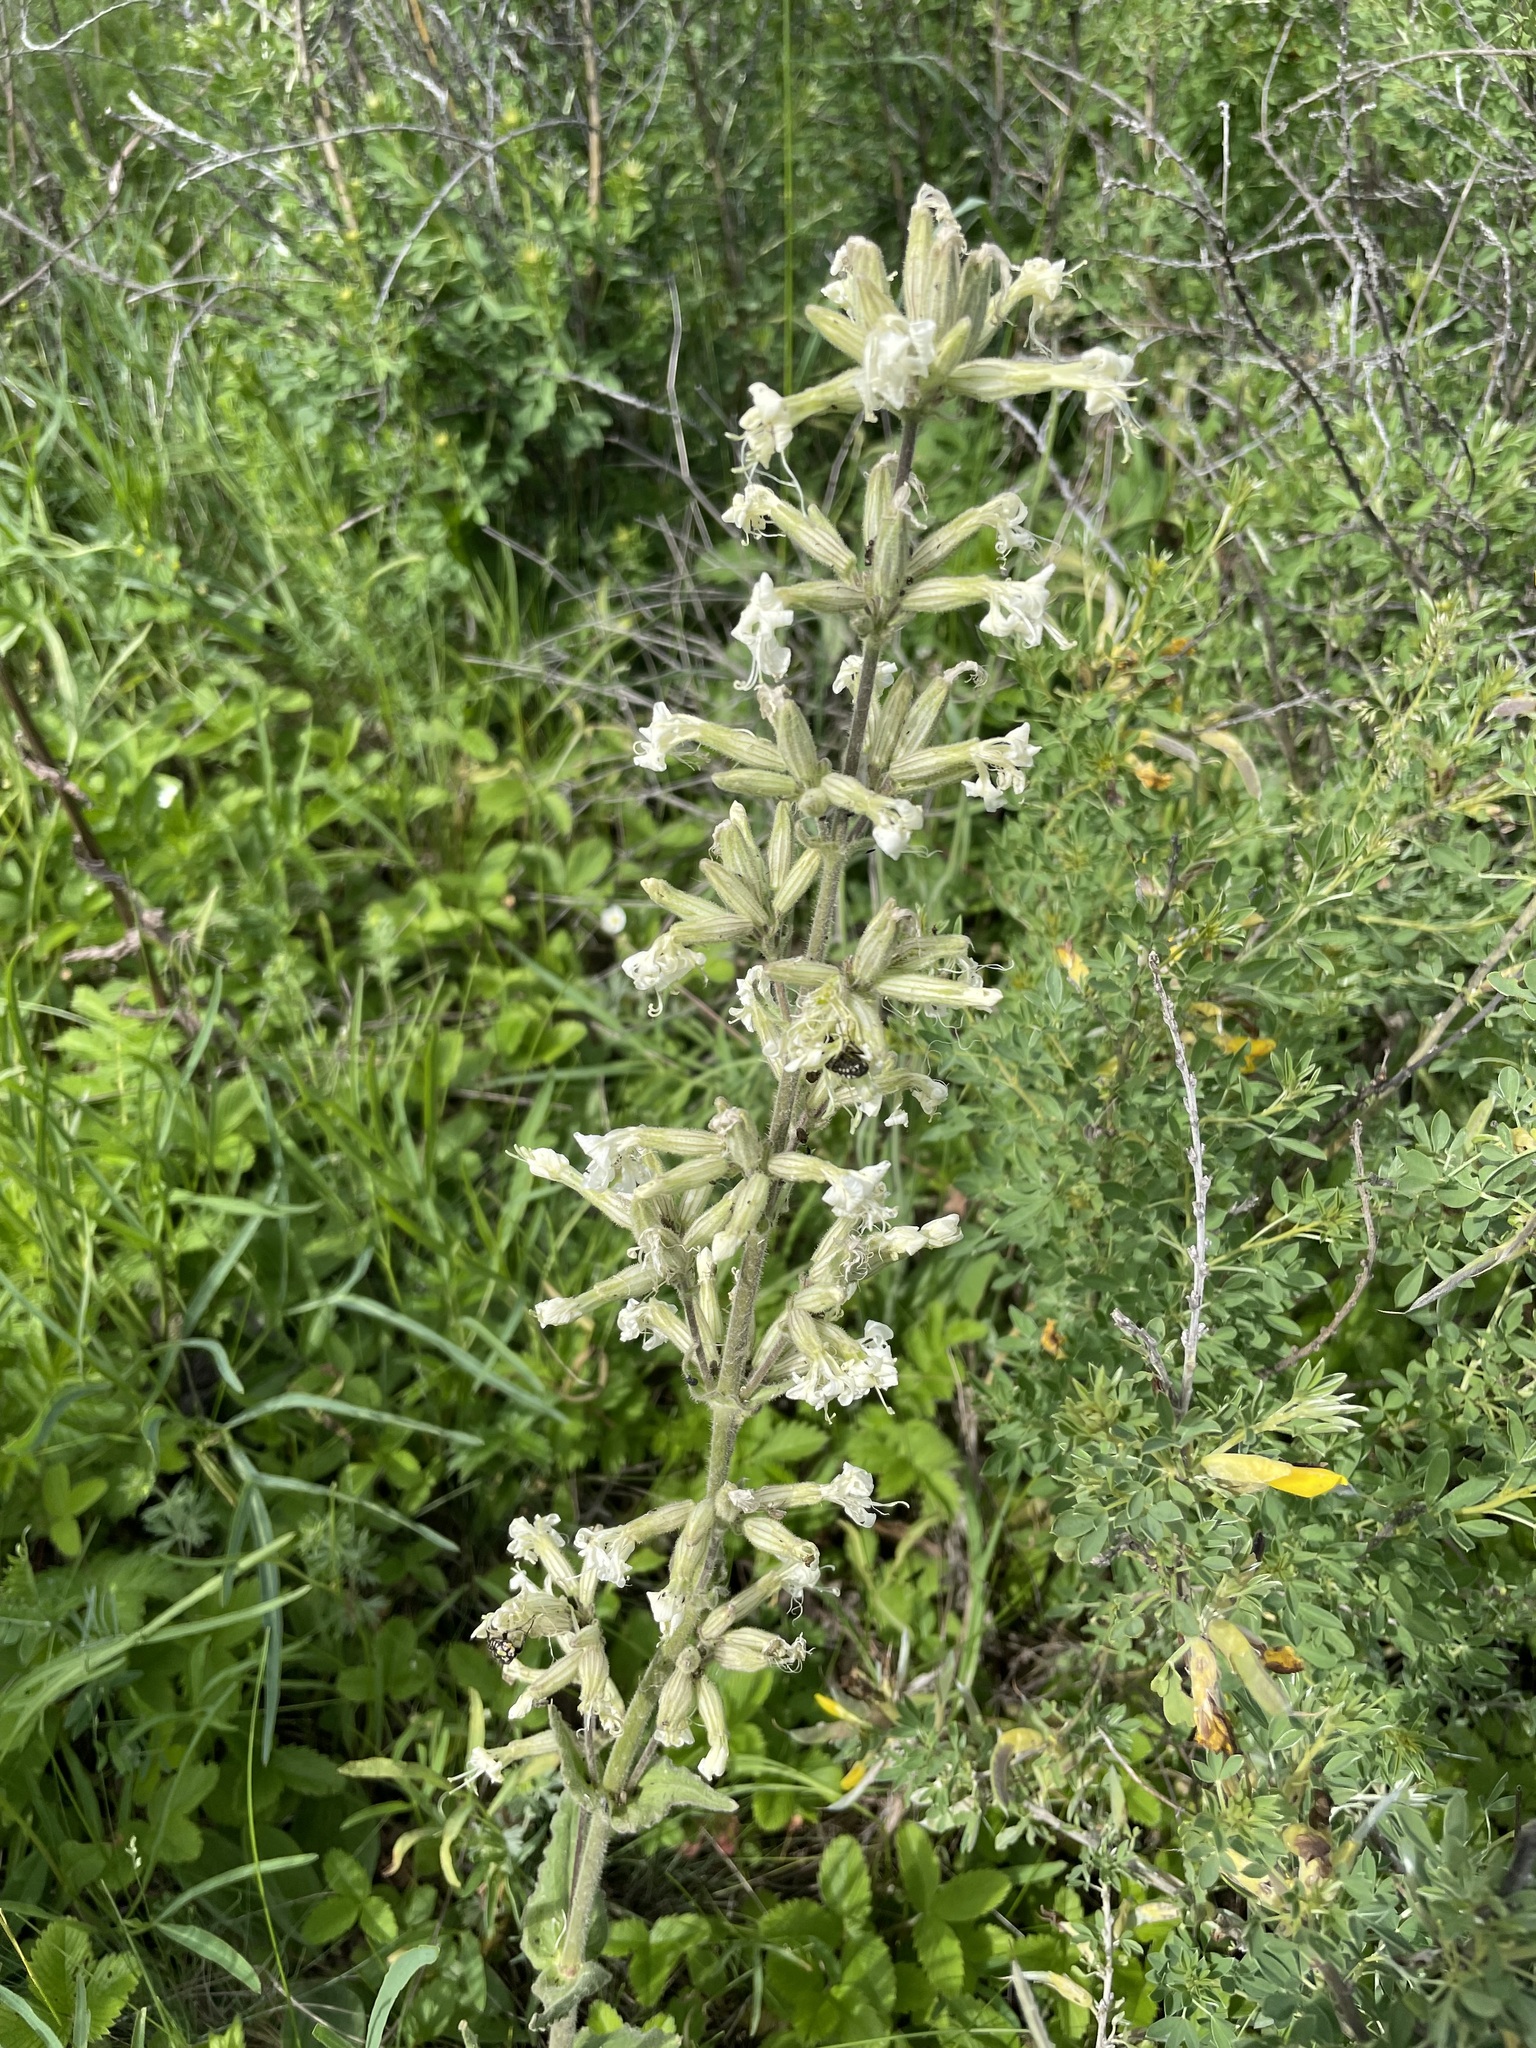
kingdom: Plantae
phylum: Tracheophyta
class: Magnoliopsida
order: Caryophyllales
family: Caryophyllaceae
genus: Silene
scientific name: Silene viscosa
